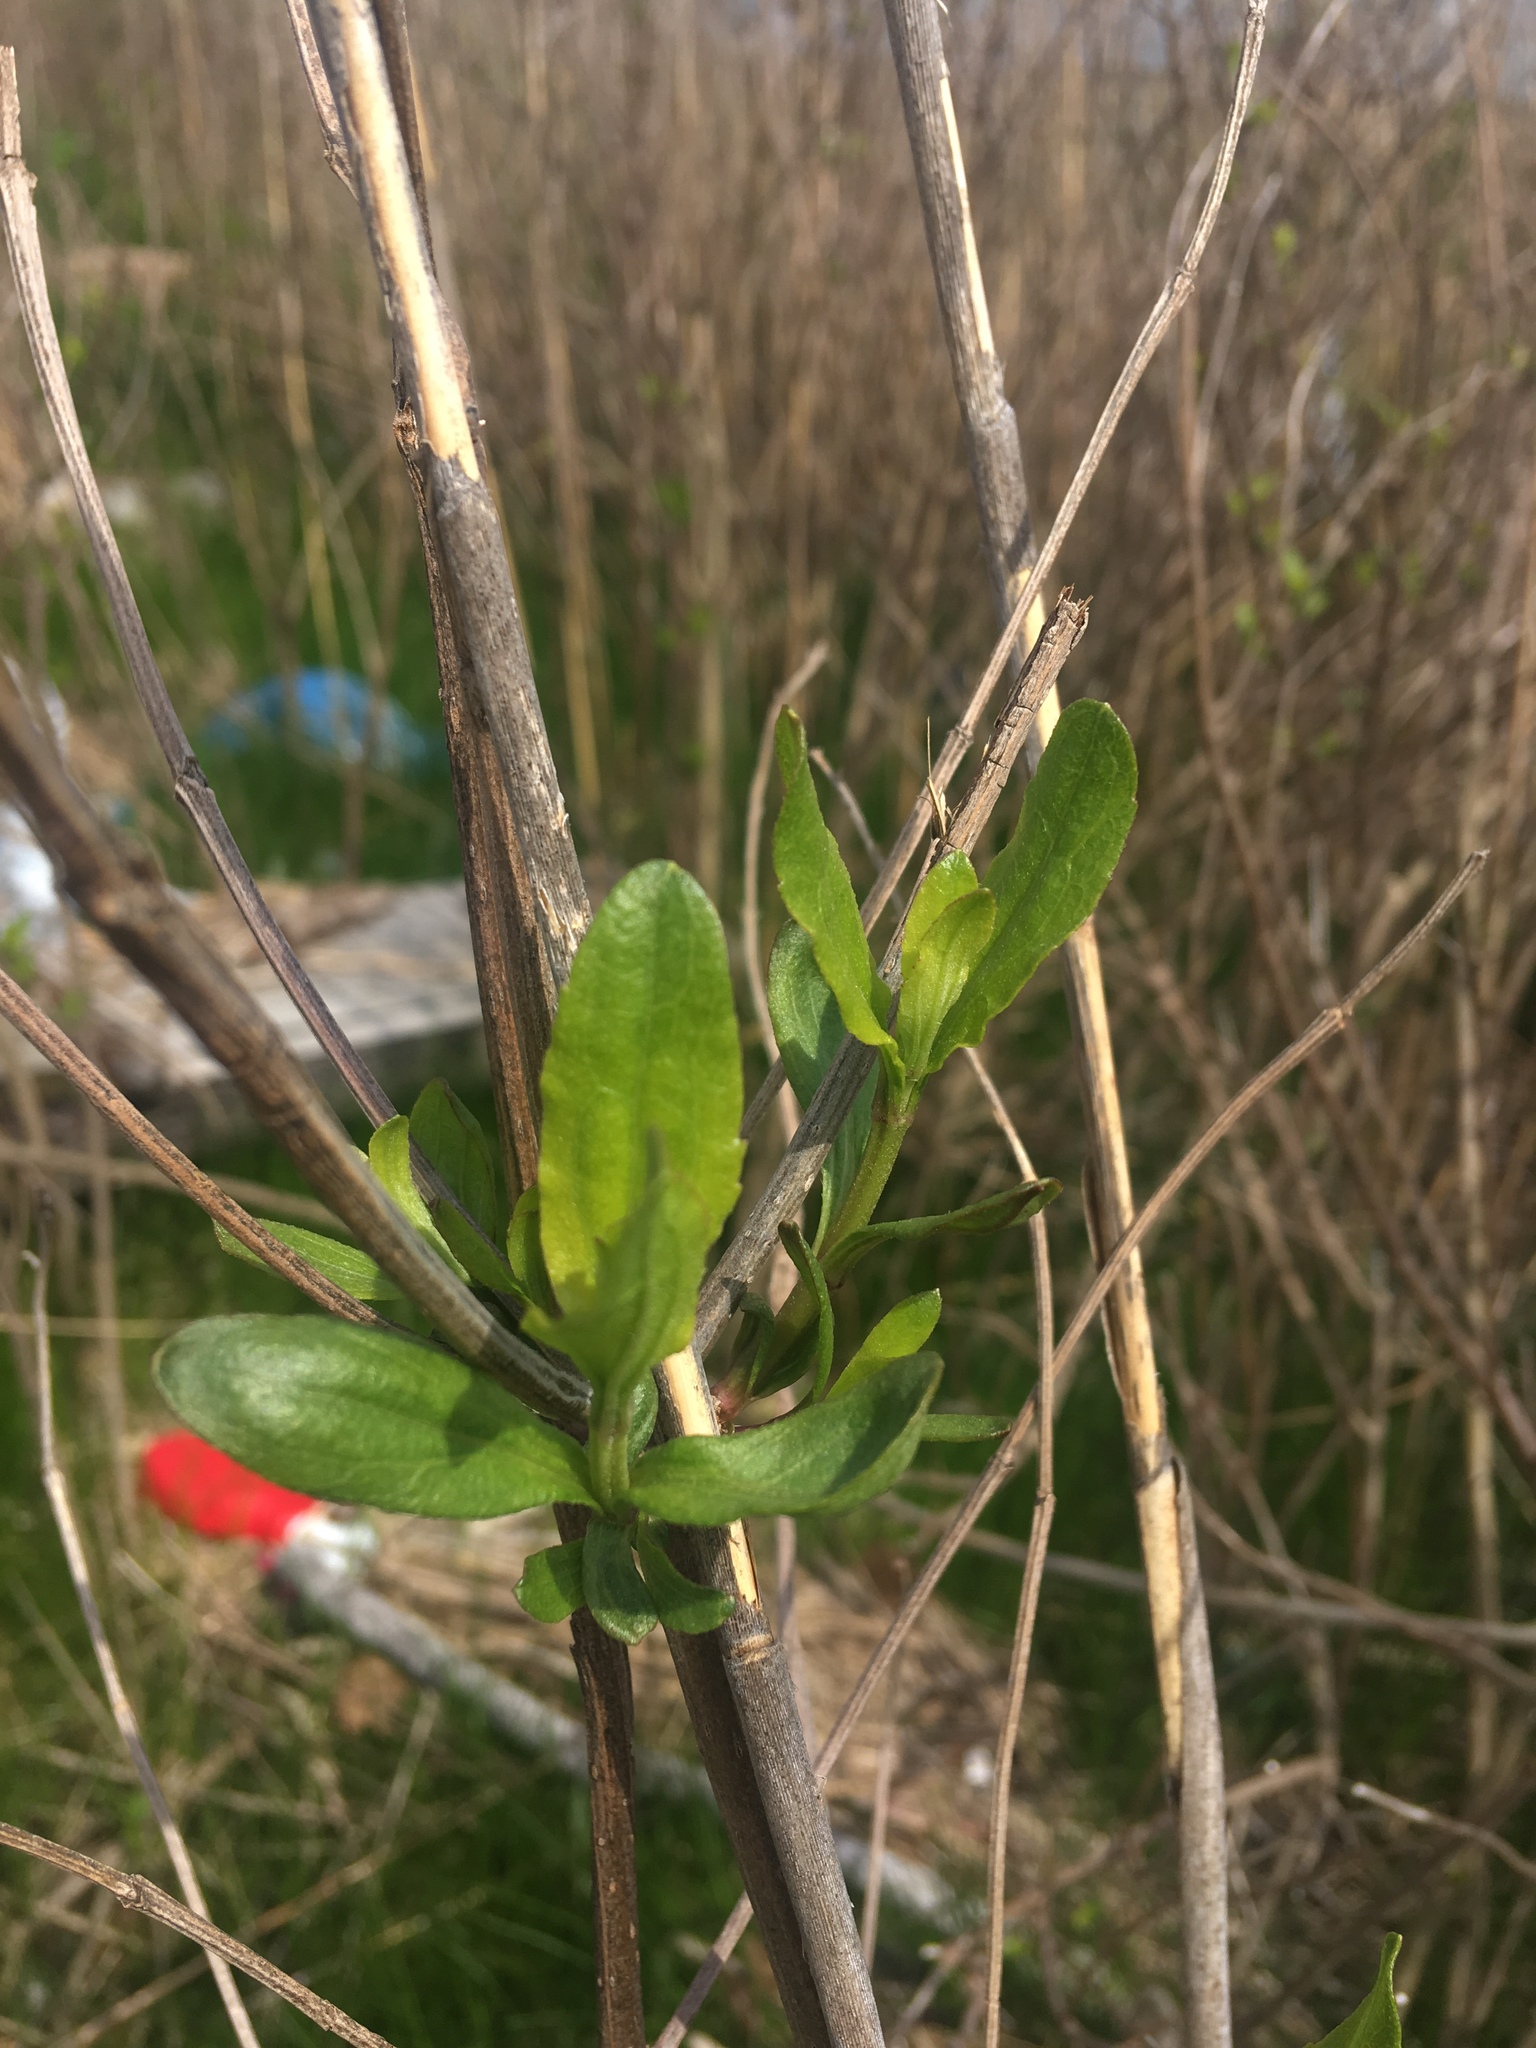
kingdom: Plantae
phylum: Tracheophyta
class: Magnoliopsida
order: Asterales
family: Asteraceae
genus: Baccharis
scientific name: Baccharis halimifolia
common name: Eastern baccharis
